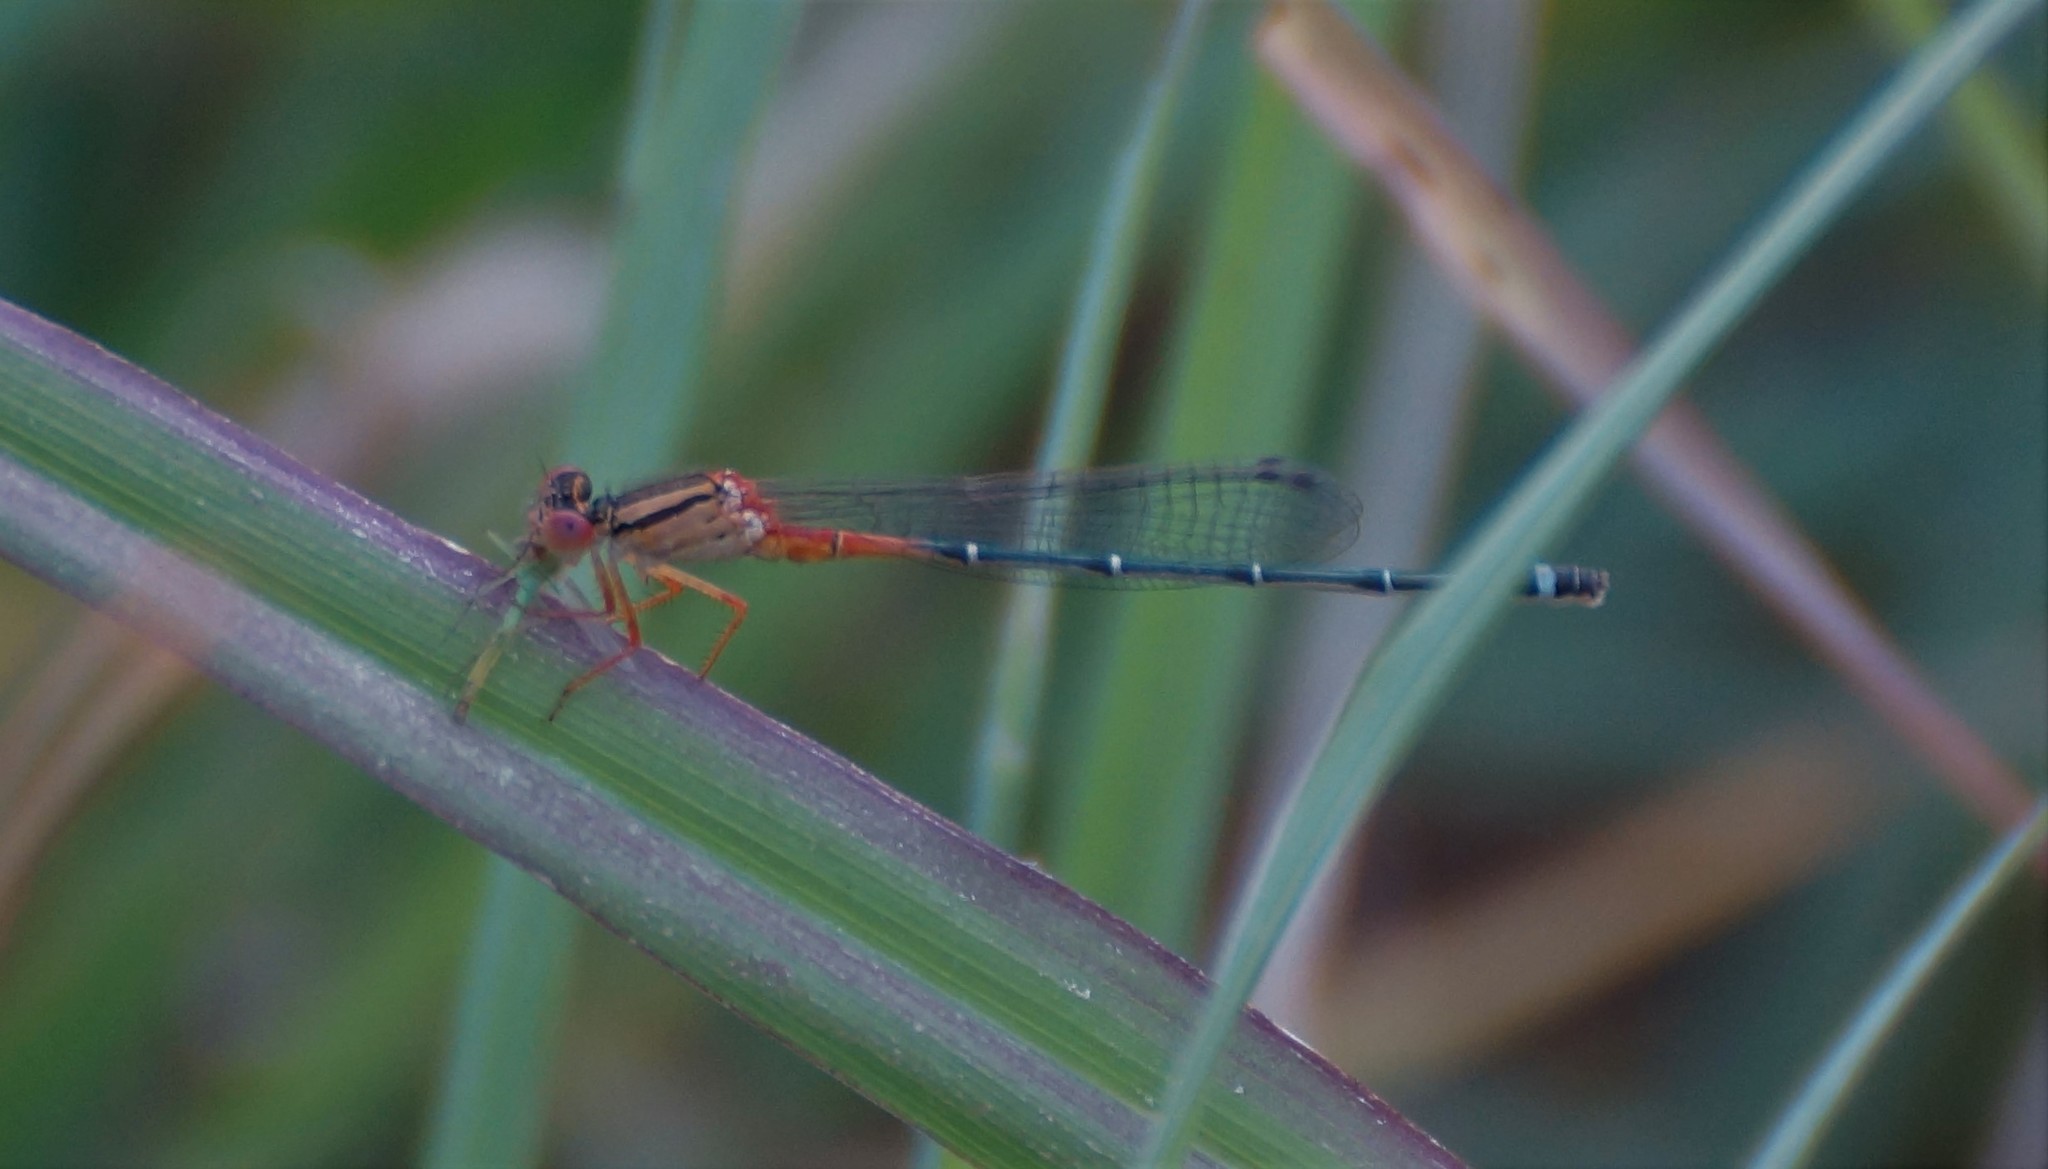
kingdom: Animalia
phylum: Arthropoda
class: Insecta
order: Odonata
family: Coenagrionidae
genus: Xanthagrion
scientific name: Xanthagrion erythroneurum
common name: Red and blue damsel
